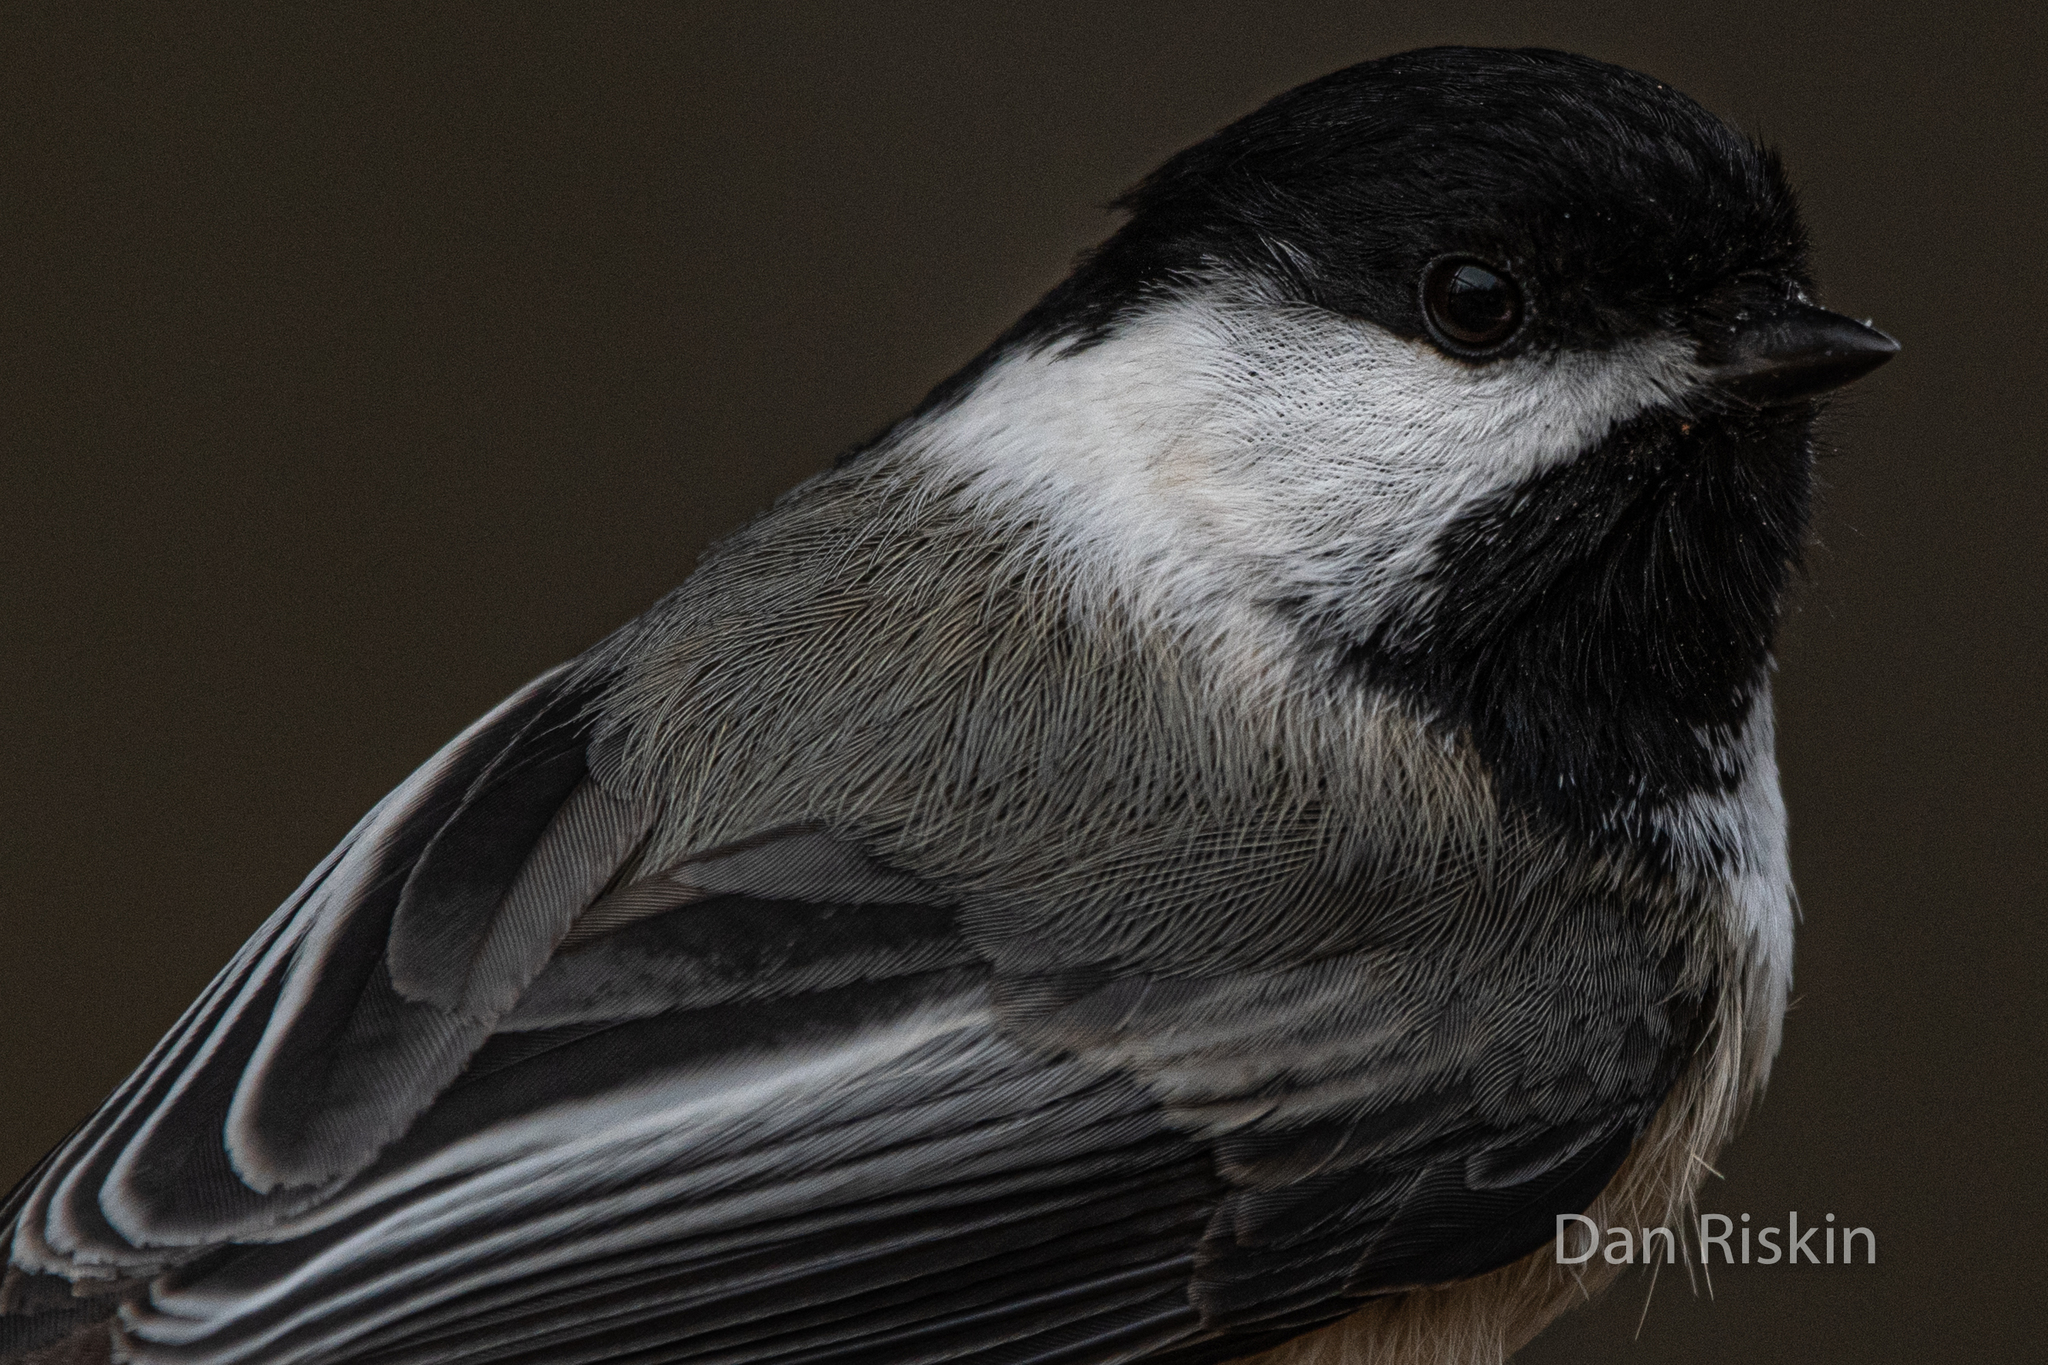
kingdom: Animalia
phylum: Chordata
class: Aves
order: Passeriformes
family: Paridae
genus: Poecile
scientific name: Poecile atricapillus
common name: Black-capped chickadee
